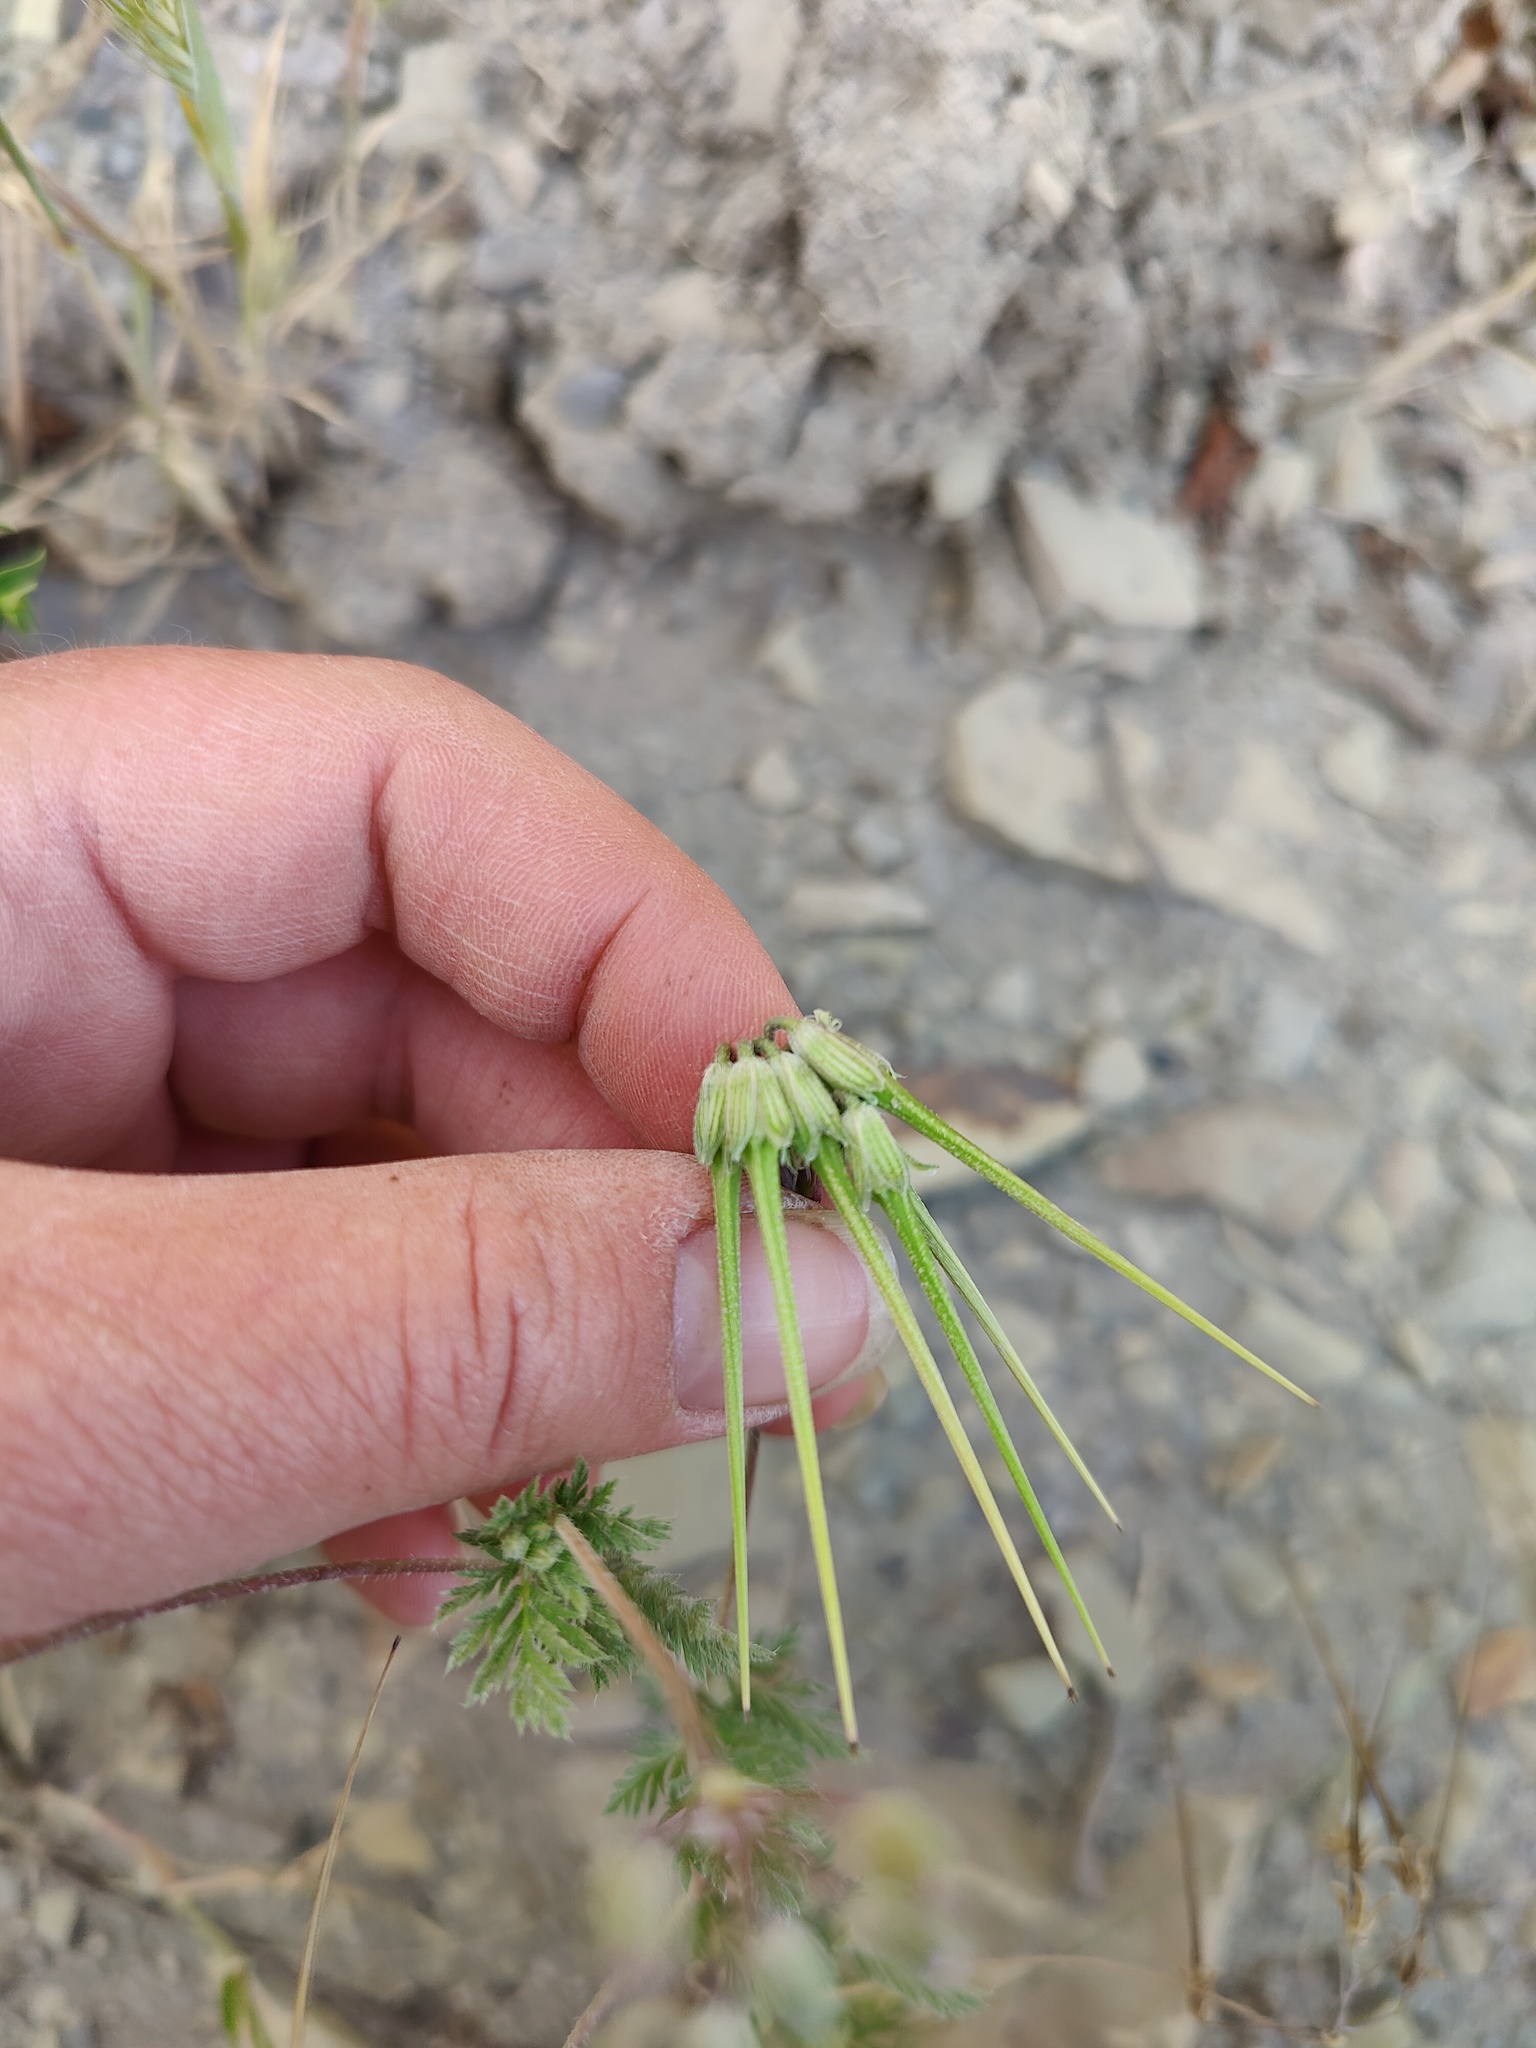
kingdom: Plantae
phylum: Tracheophyta
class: Magnoliopsida
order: Geraniales
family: Geraniaceae
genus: Erodium
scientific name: Erodium cicutarium
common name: Common stork's-bill
